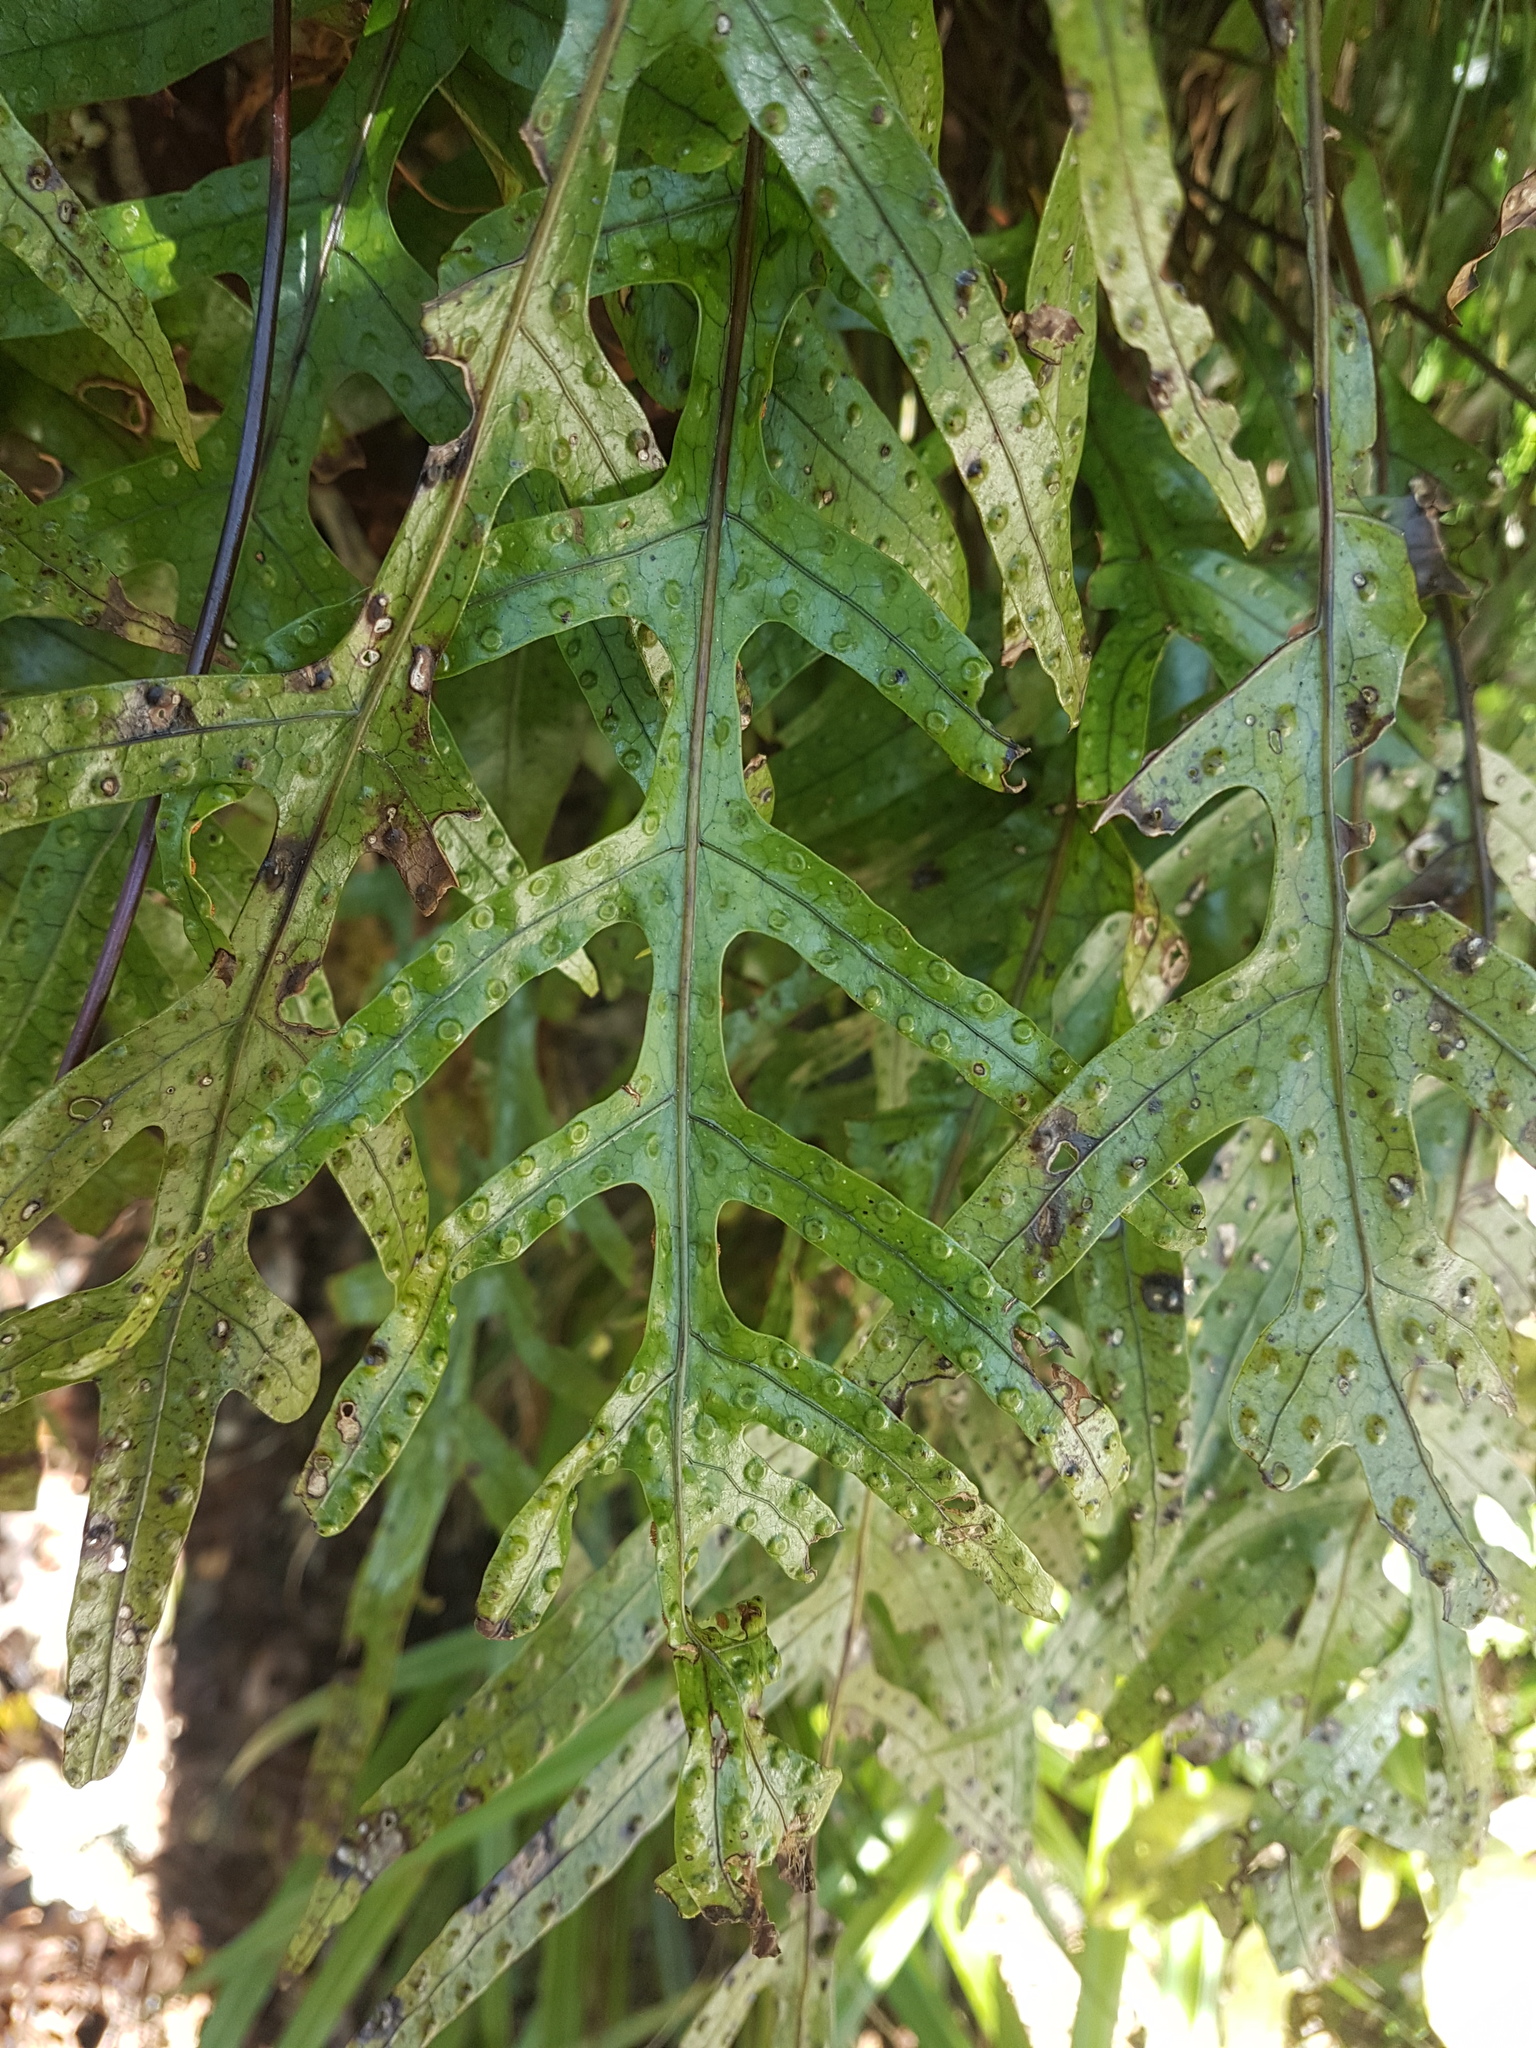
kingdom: Plantae
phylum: Tracheophyta
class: Polypodiopsida
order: Polypodiales
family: Polypodiaceae
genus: Lecanopteris
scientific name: Lecanopteris pustulata
